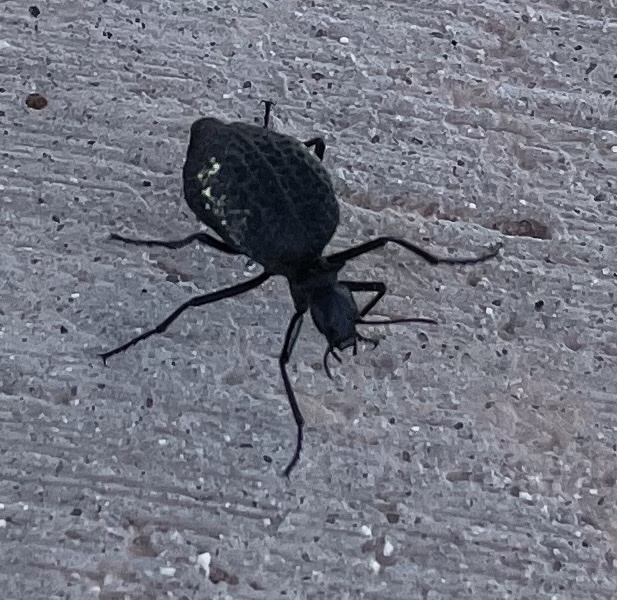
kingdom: Animalia
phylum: Arthropoda
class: Insecta
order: Coleoptera
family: Meloidae
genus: Cysteodemus
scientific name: Cysteodemus armatus
